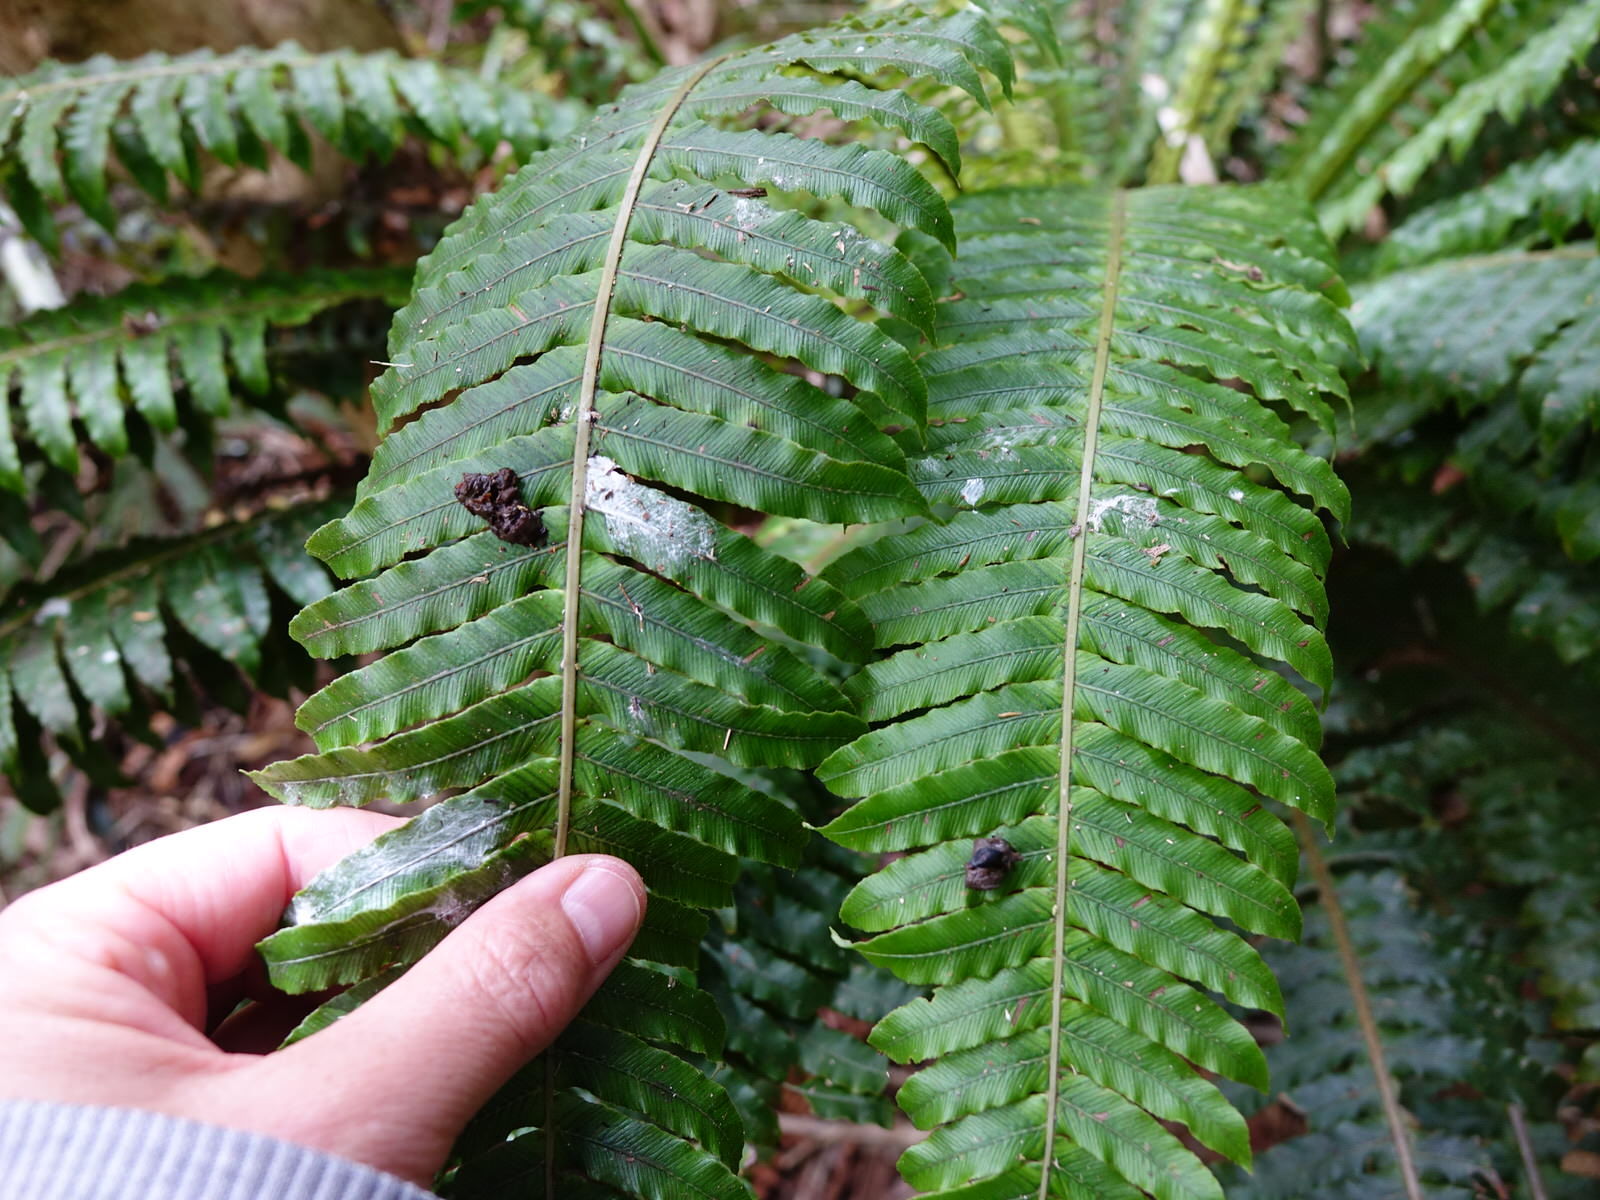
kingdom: Animalia
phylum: Chordata
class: Aves
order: Passeriformes
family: Callaeatidae
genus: Callaeas
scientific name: Callaeas cinereus
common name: South island kokako
